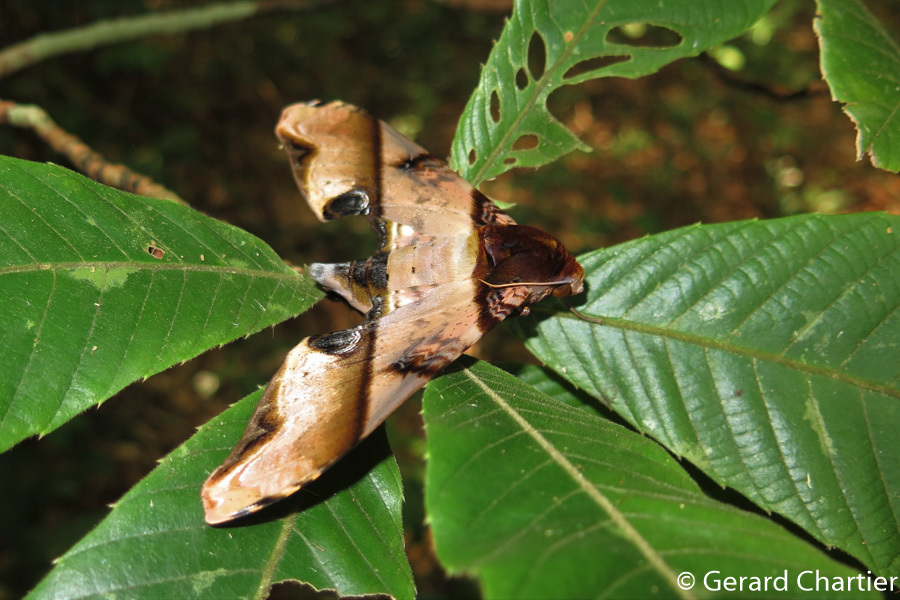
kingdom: Animalia
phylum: Arthropoda
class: Insecta
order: Lepidoptera
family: Sphingidae
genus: Amplypterus
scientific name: Amplypterus panopus
